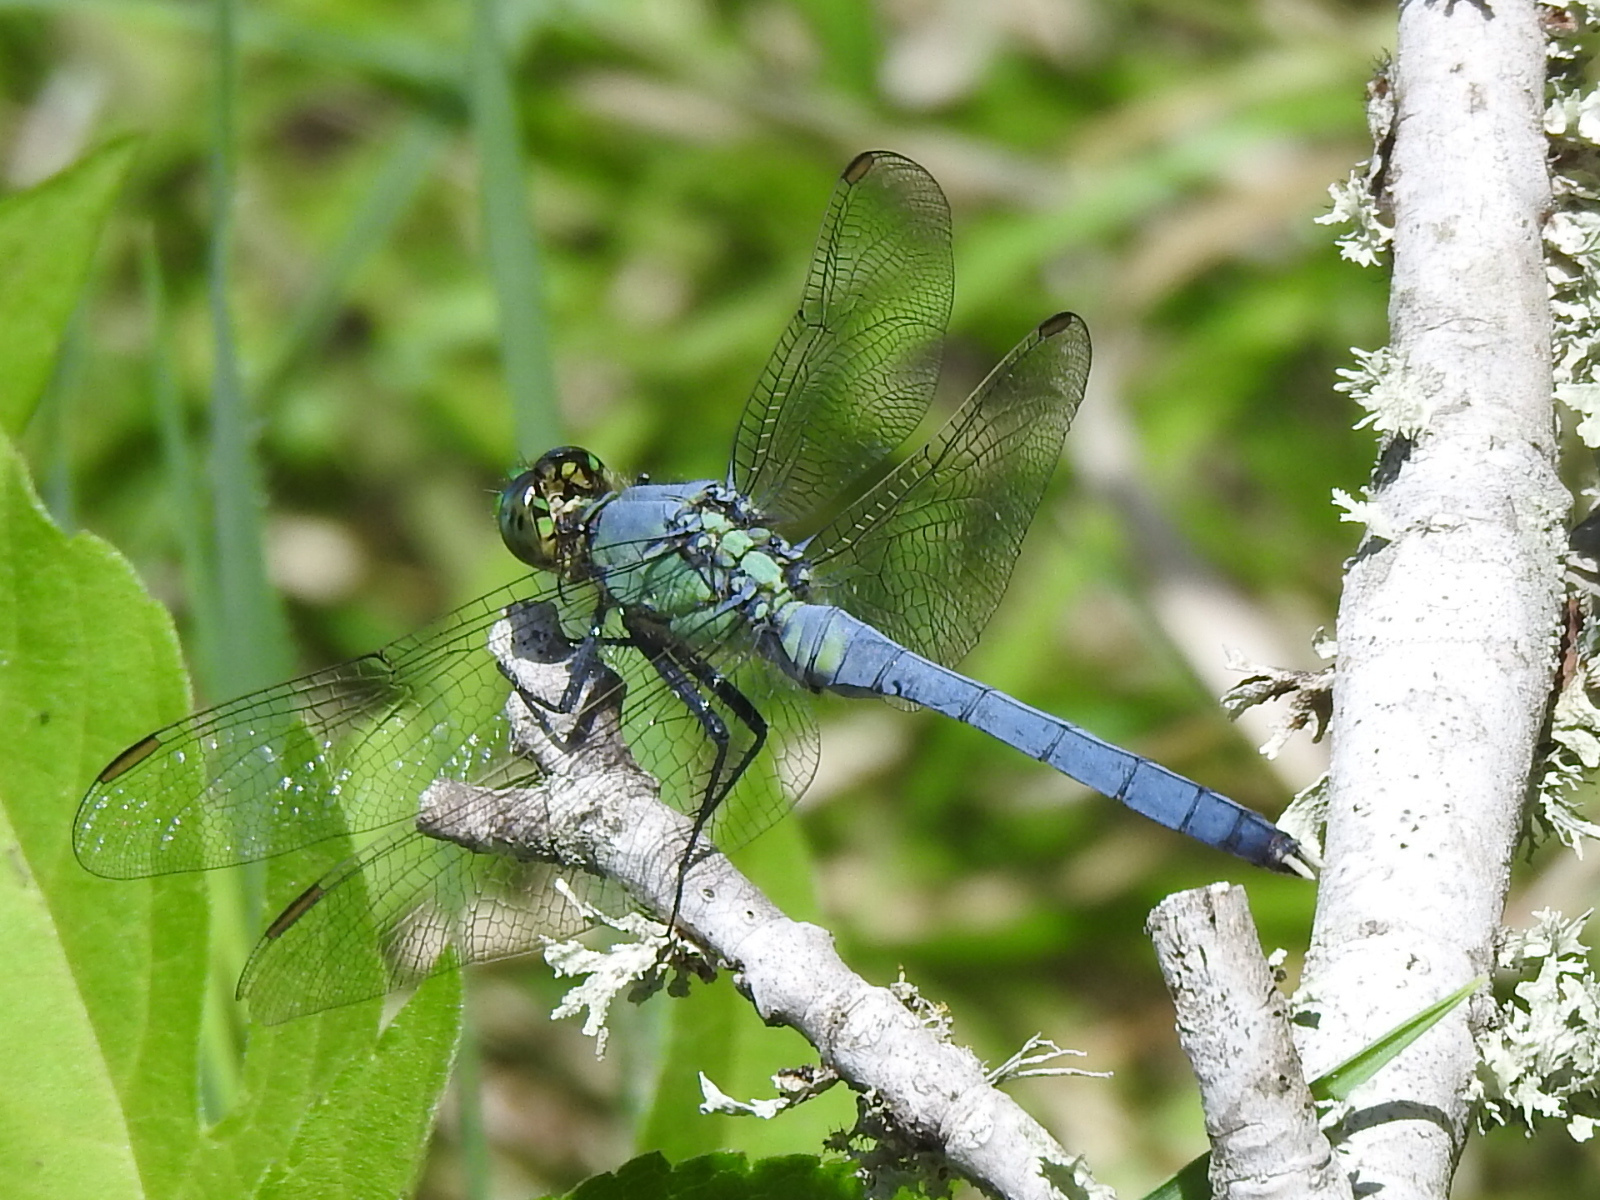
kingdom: Animalia
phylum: Arthropoda
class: Insecta
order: Odonata
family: Libellulidae
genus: Erythemis
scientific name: Erythemis simplicicollis
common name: Eastern pondhawk
